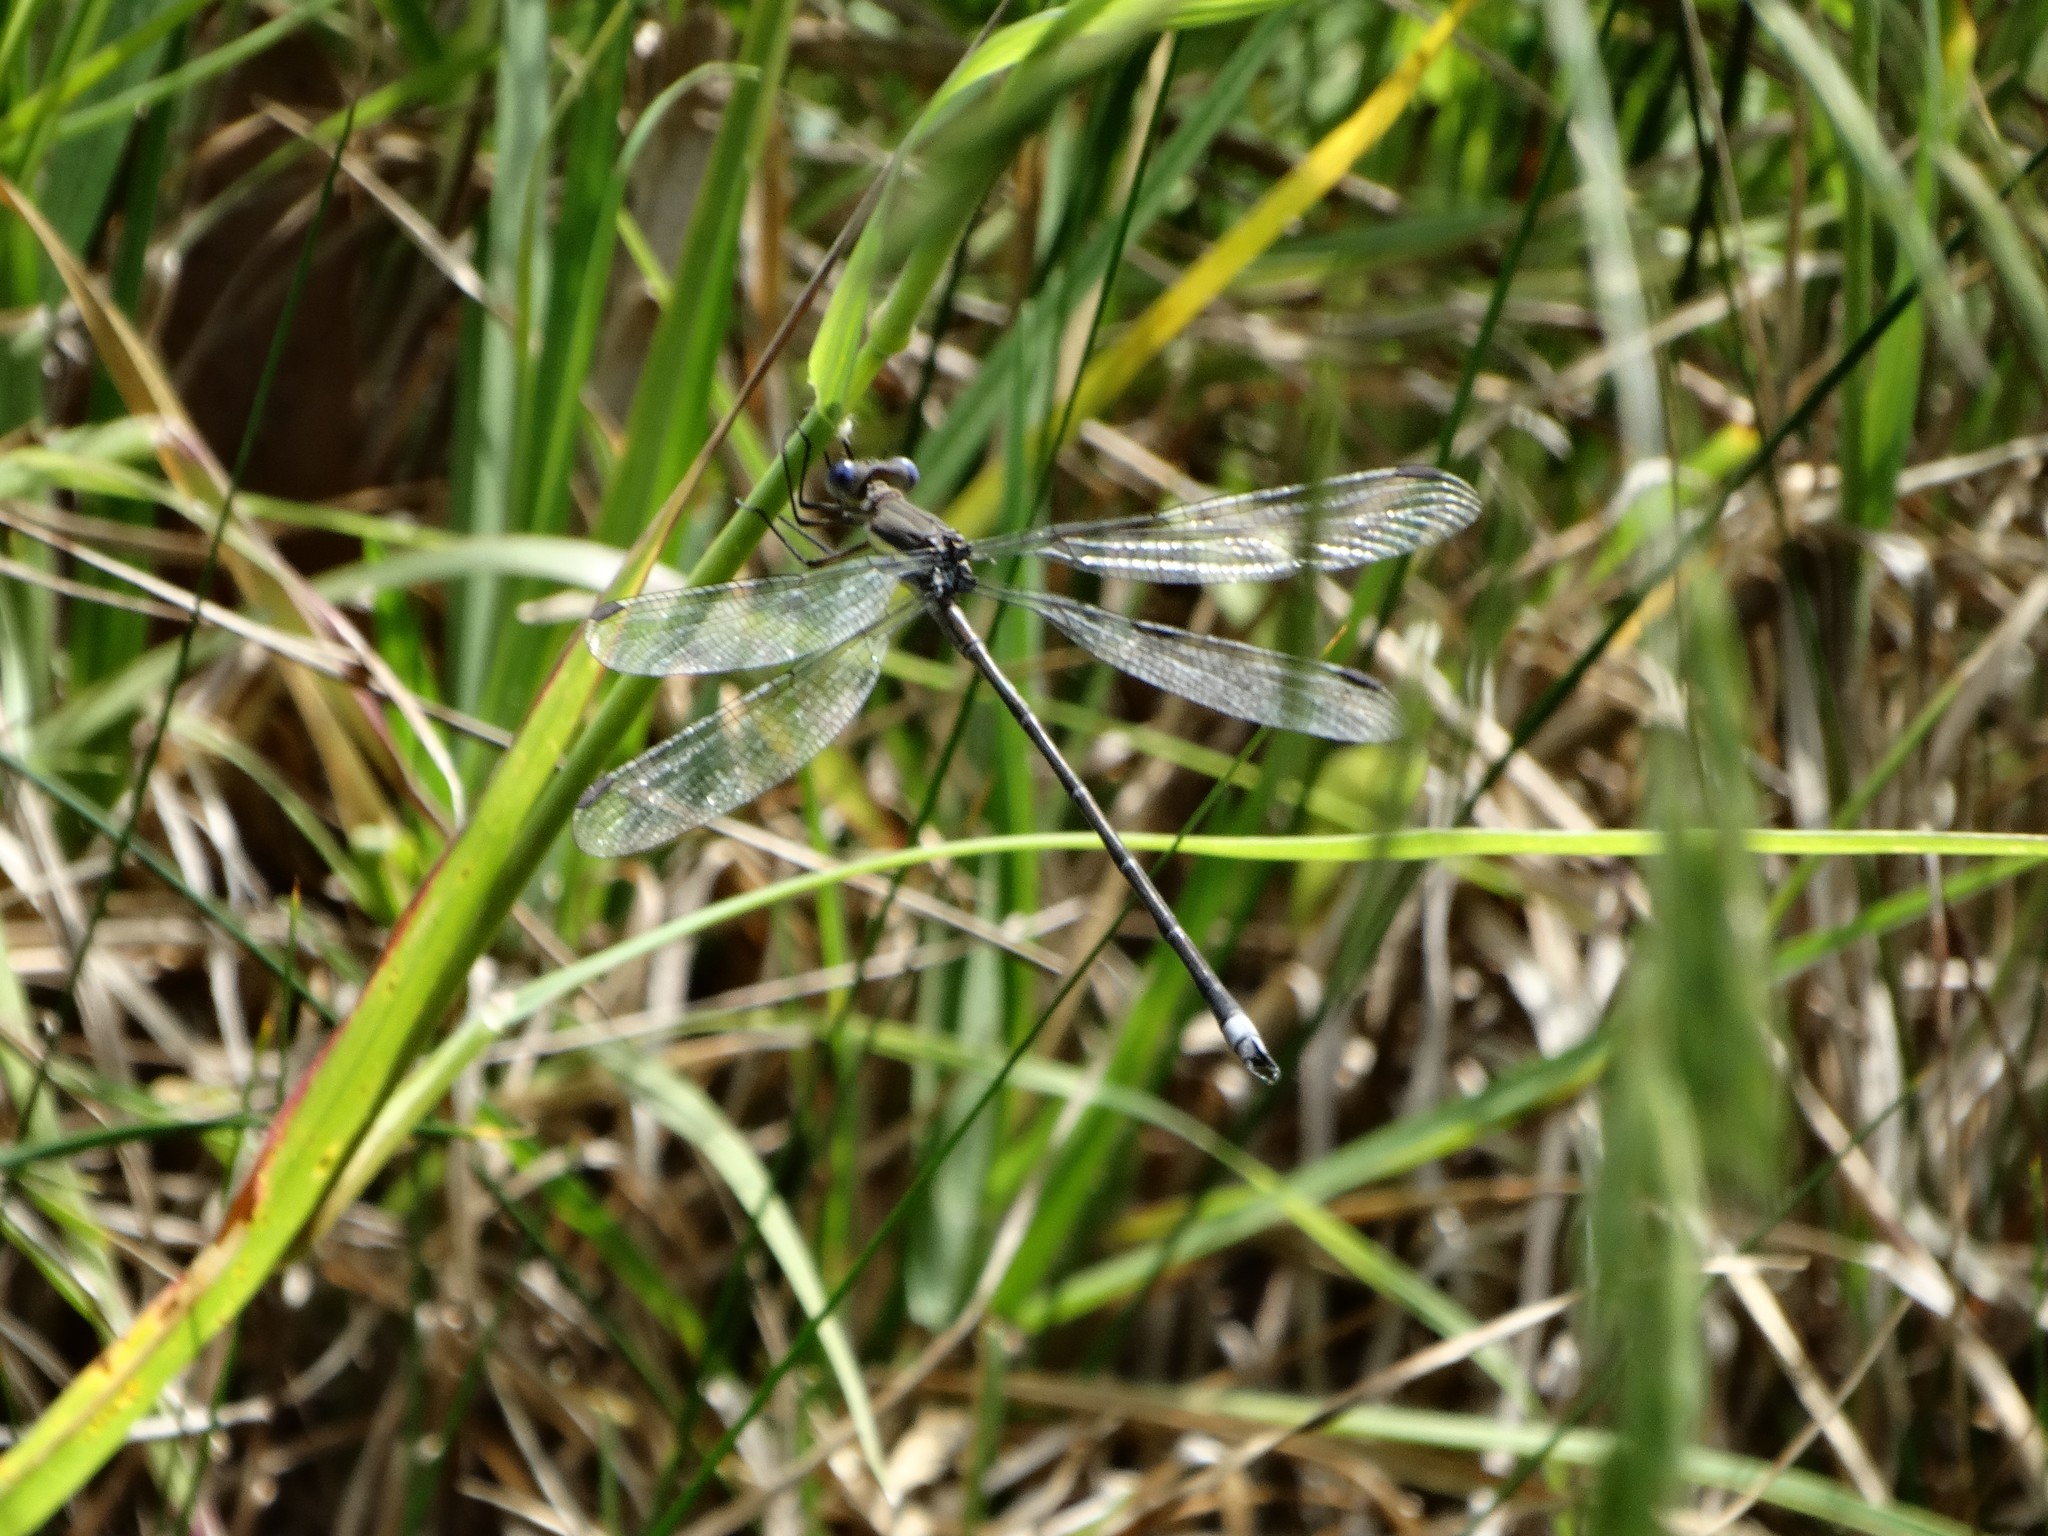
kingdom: Animalia
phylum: Arthropoda
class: Insecta
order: Odonata
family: Lestidae
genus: Archilestes
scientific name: Archilestes grandis
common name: Great spreadwing
